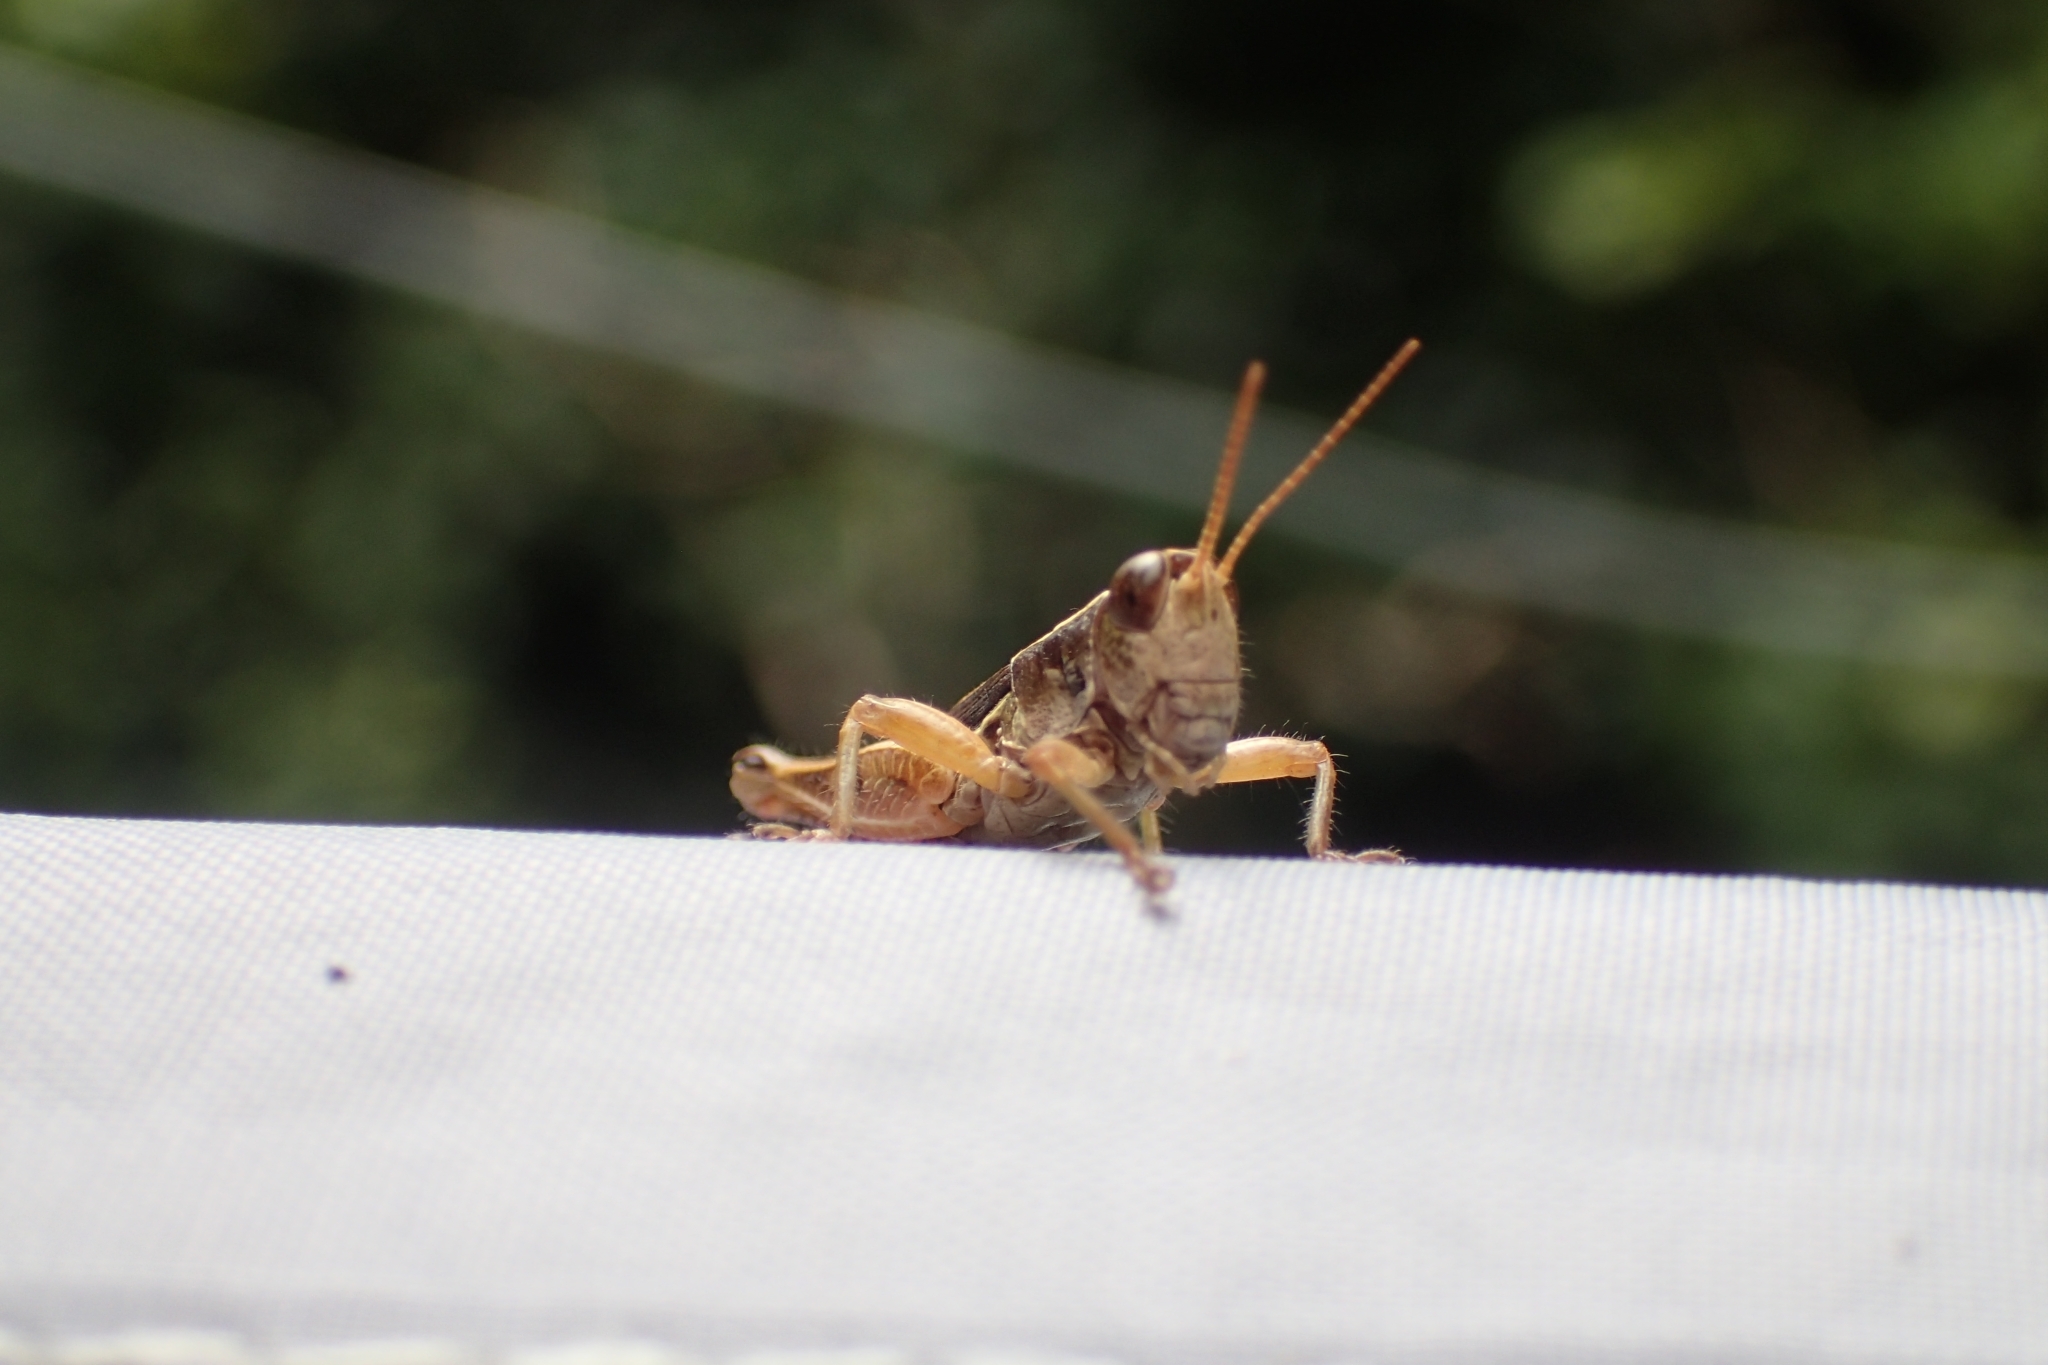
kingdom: Animalia
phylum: Arthropoda
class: Insecta
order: Orthoptera
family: Acrididae
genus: Phaulacridium
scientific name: Phaulacridium marginale
